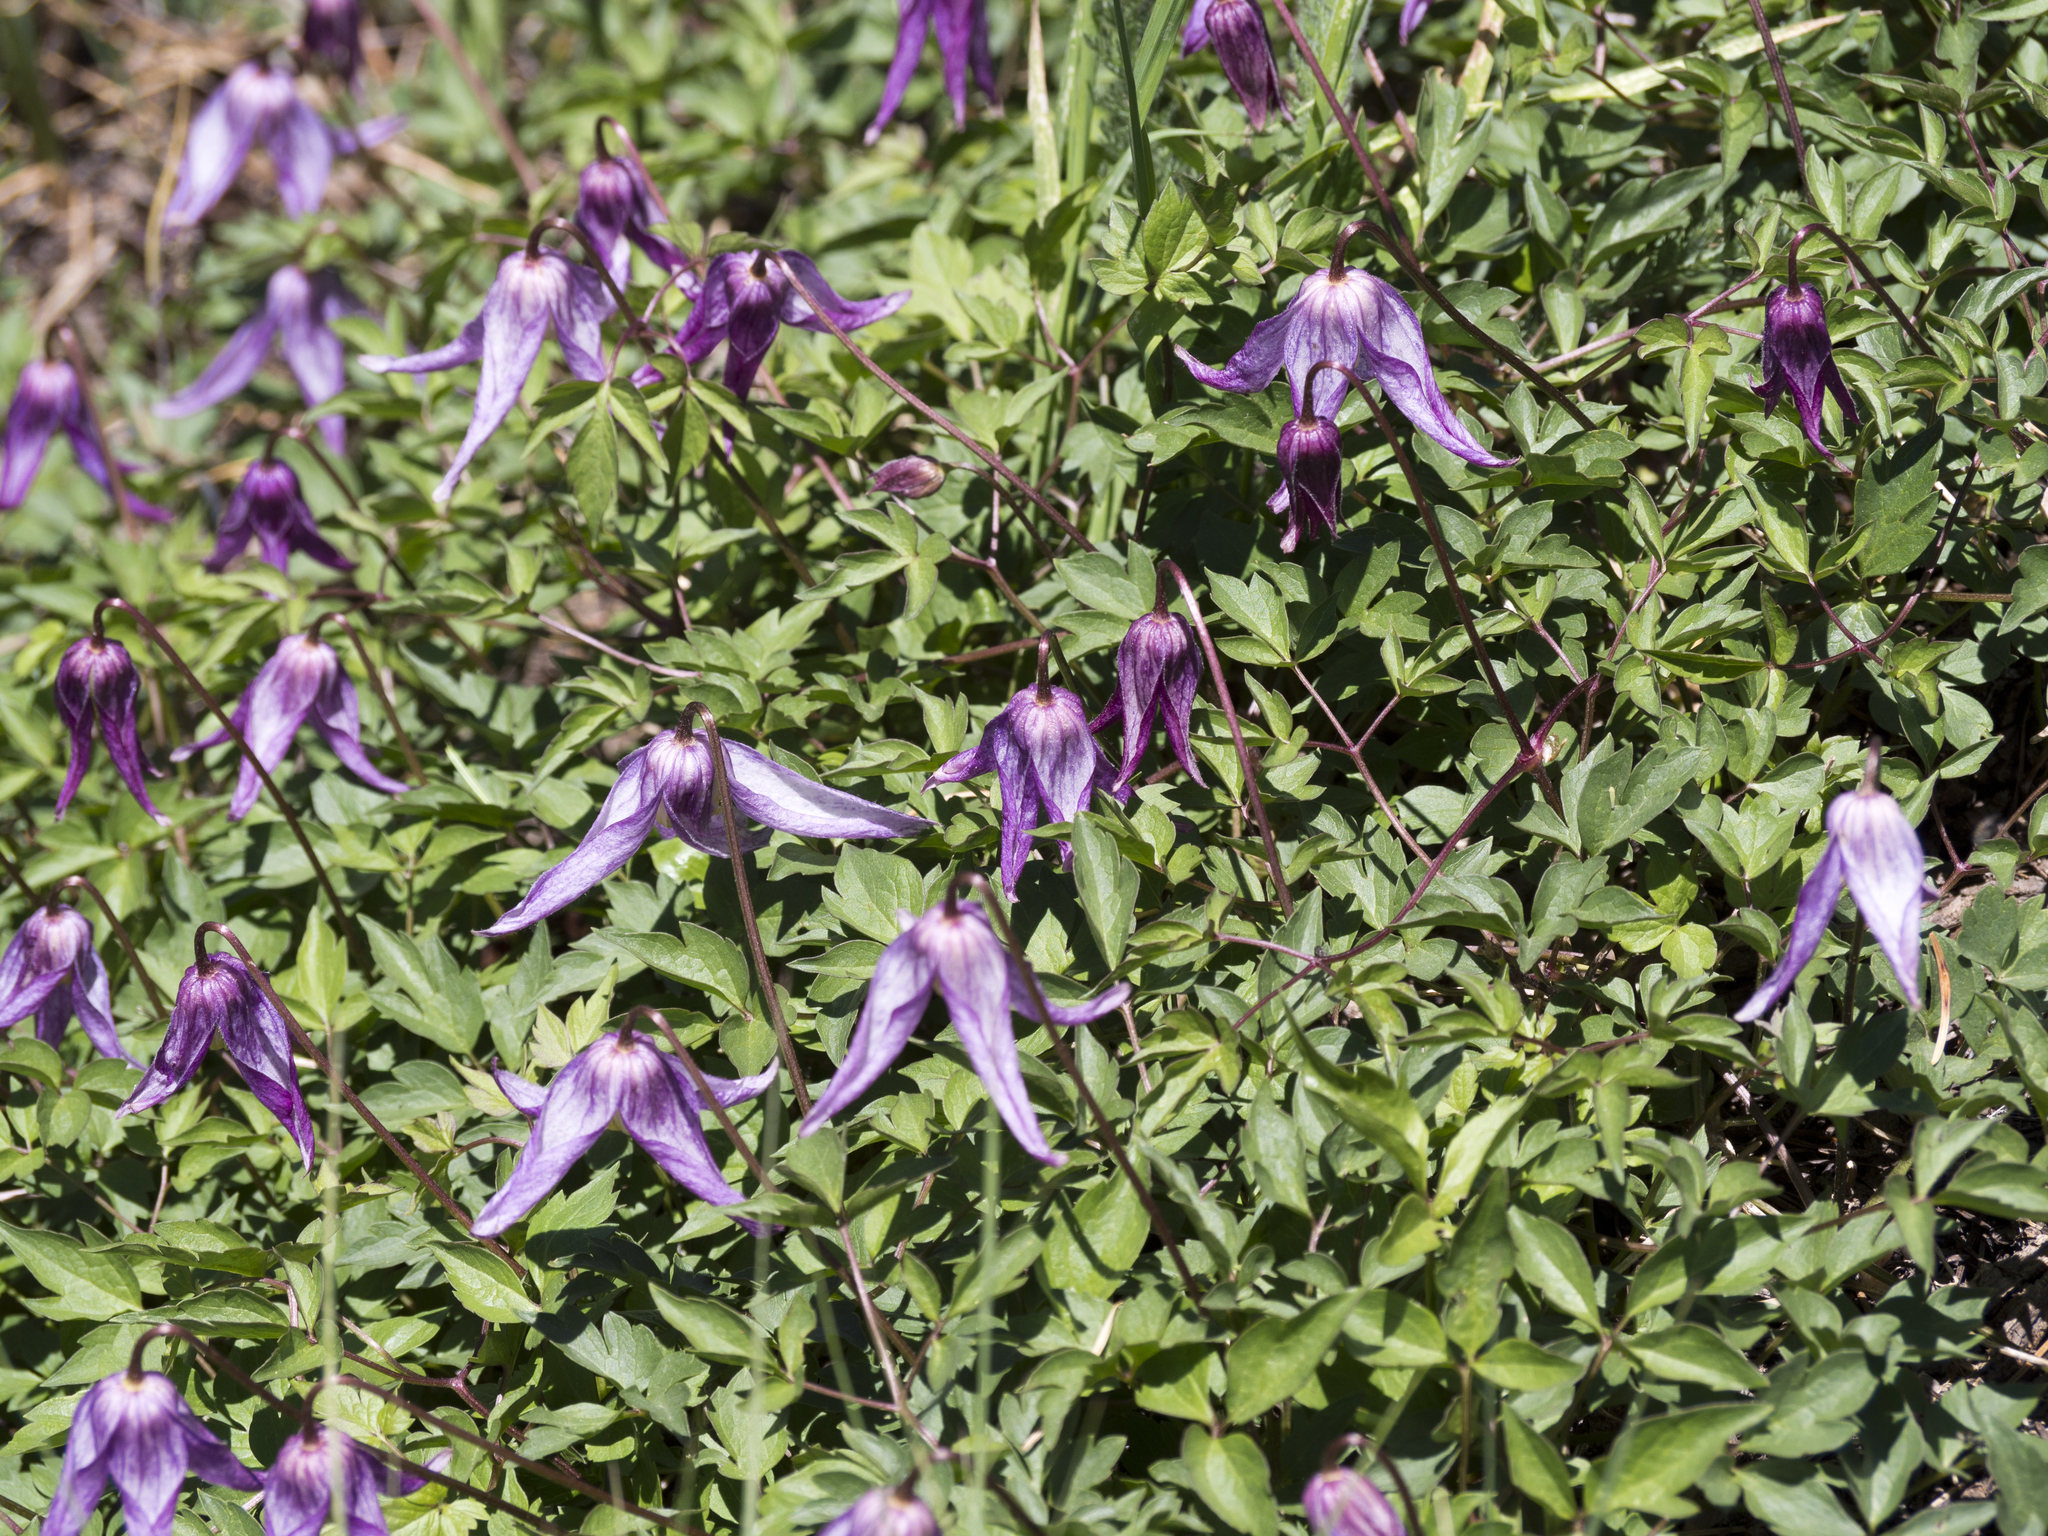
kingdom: Plantae
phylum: Tracheophyta
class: Magnoliopsida
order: Ranunculales
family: Ranunculaceae
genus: Clematis
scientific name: Clematis columbiana
